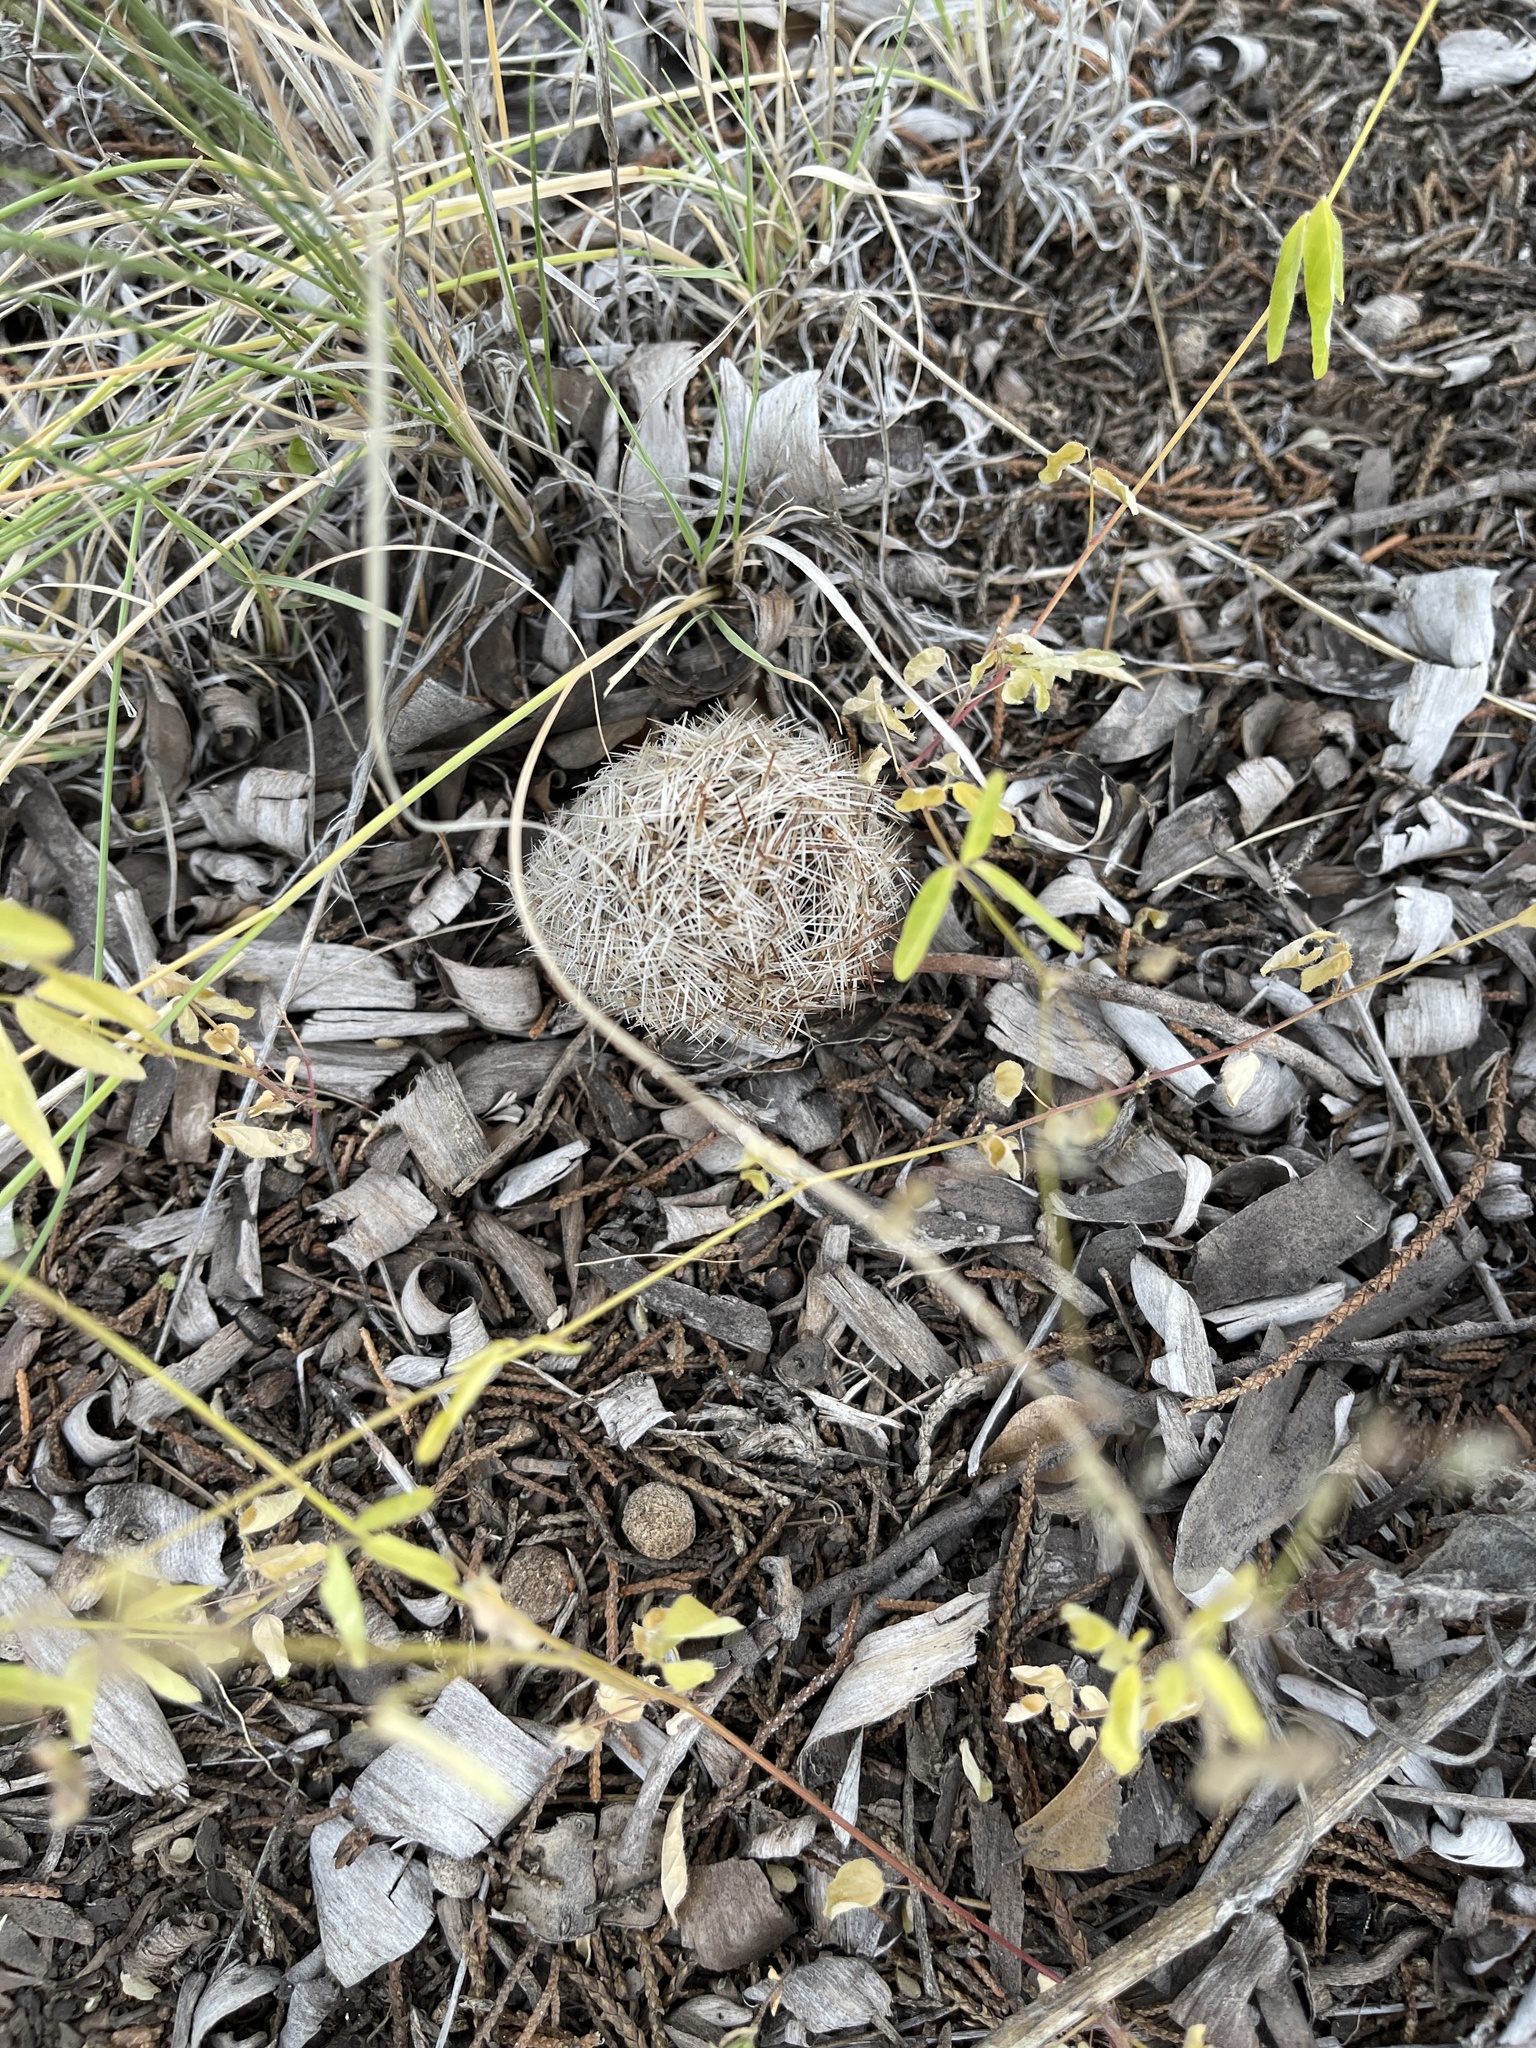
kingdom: Plantae
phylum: Tracheophyta
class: Magnoliopsida
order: Caryophyllales
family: Cactaceae
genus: Pelecyphora
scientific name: Pelecyphora vivipara
